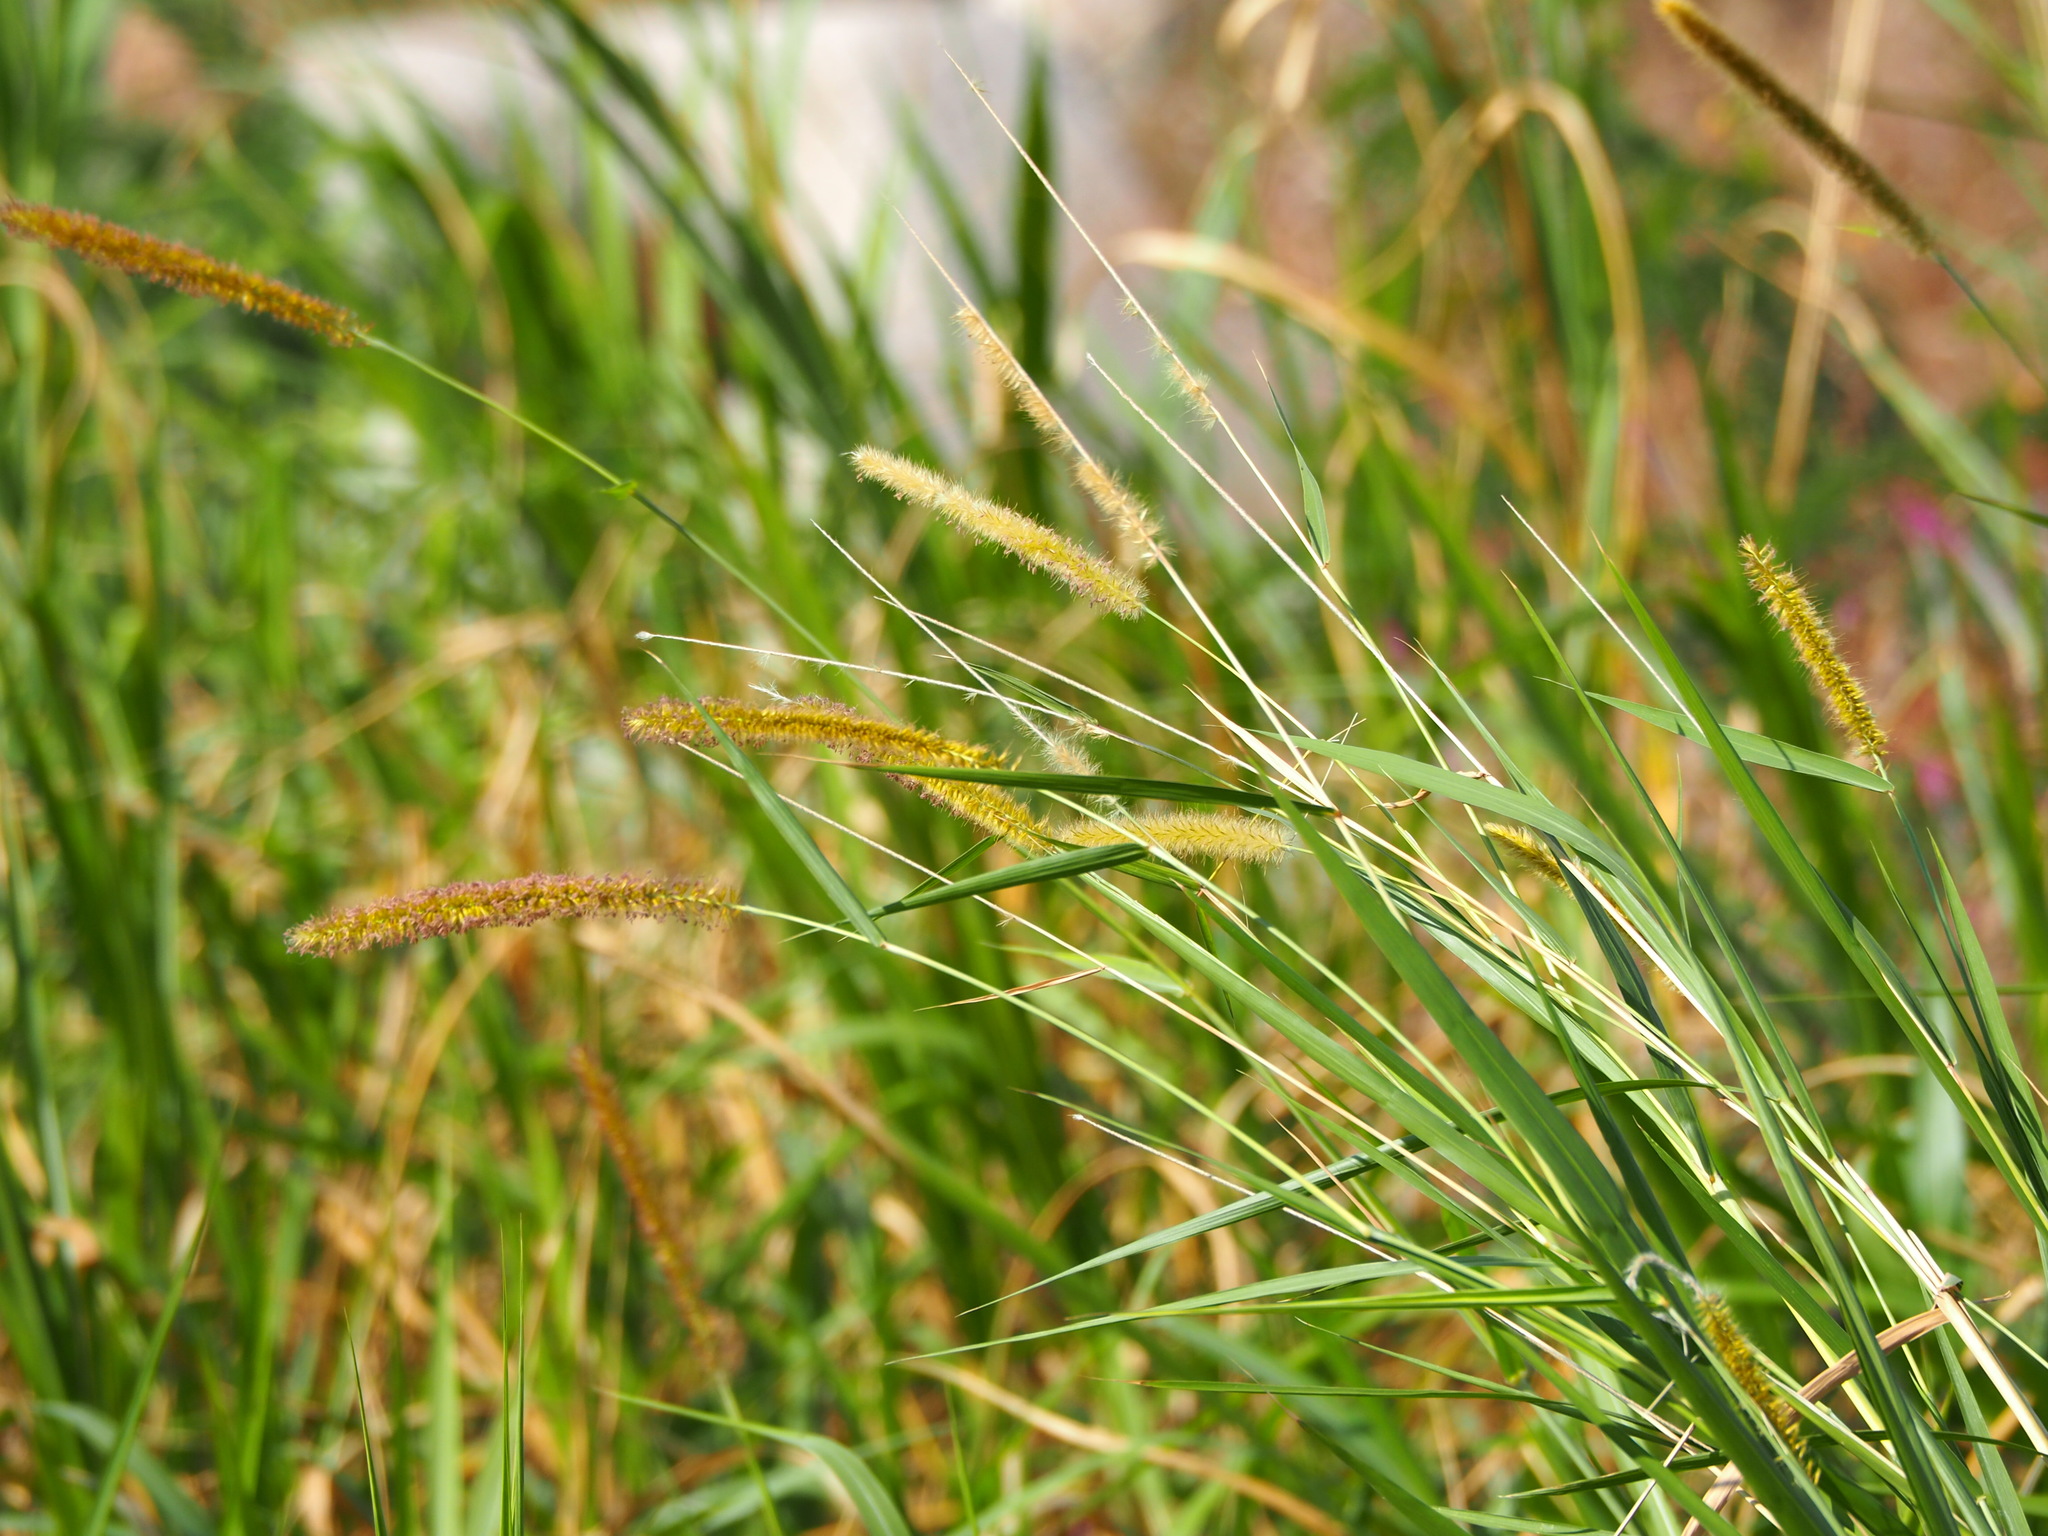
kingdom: Plantae
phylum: Tracheophyta
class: Liliopsida
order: Poales
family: Poaceae
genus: Cenchrus
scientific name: Cenchrus purpureus
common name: Elephant grass
